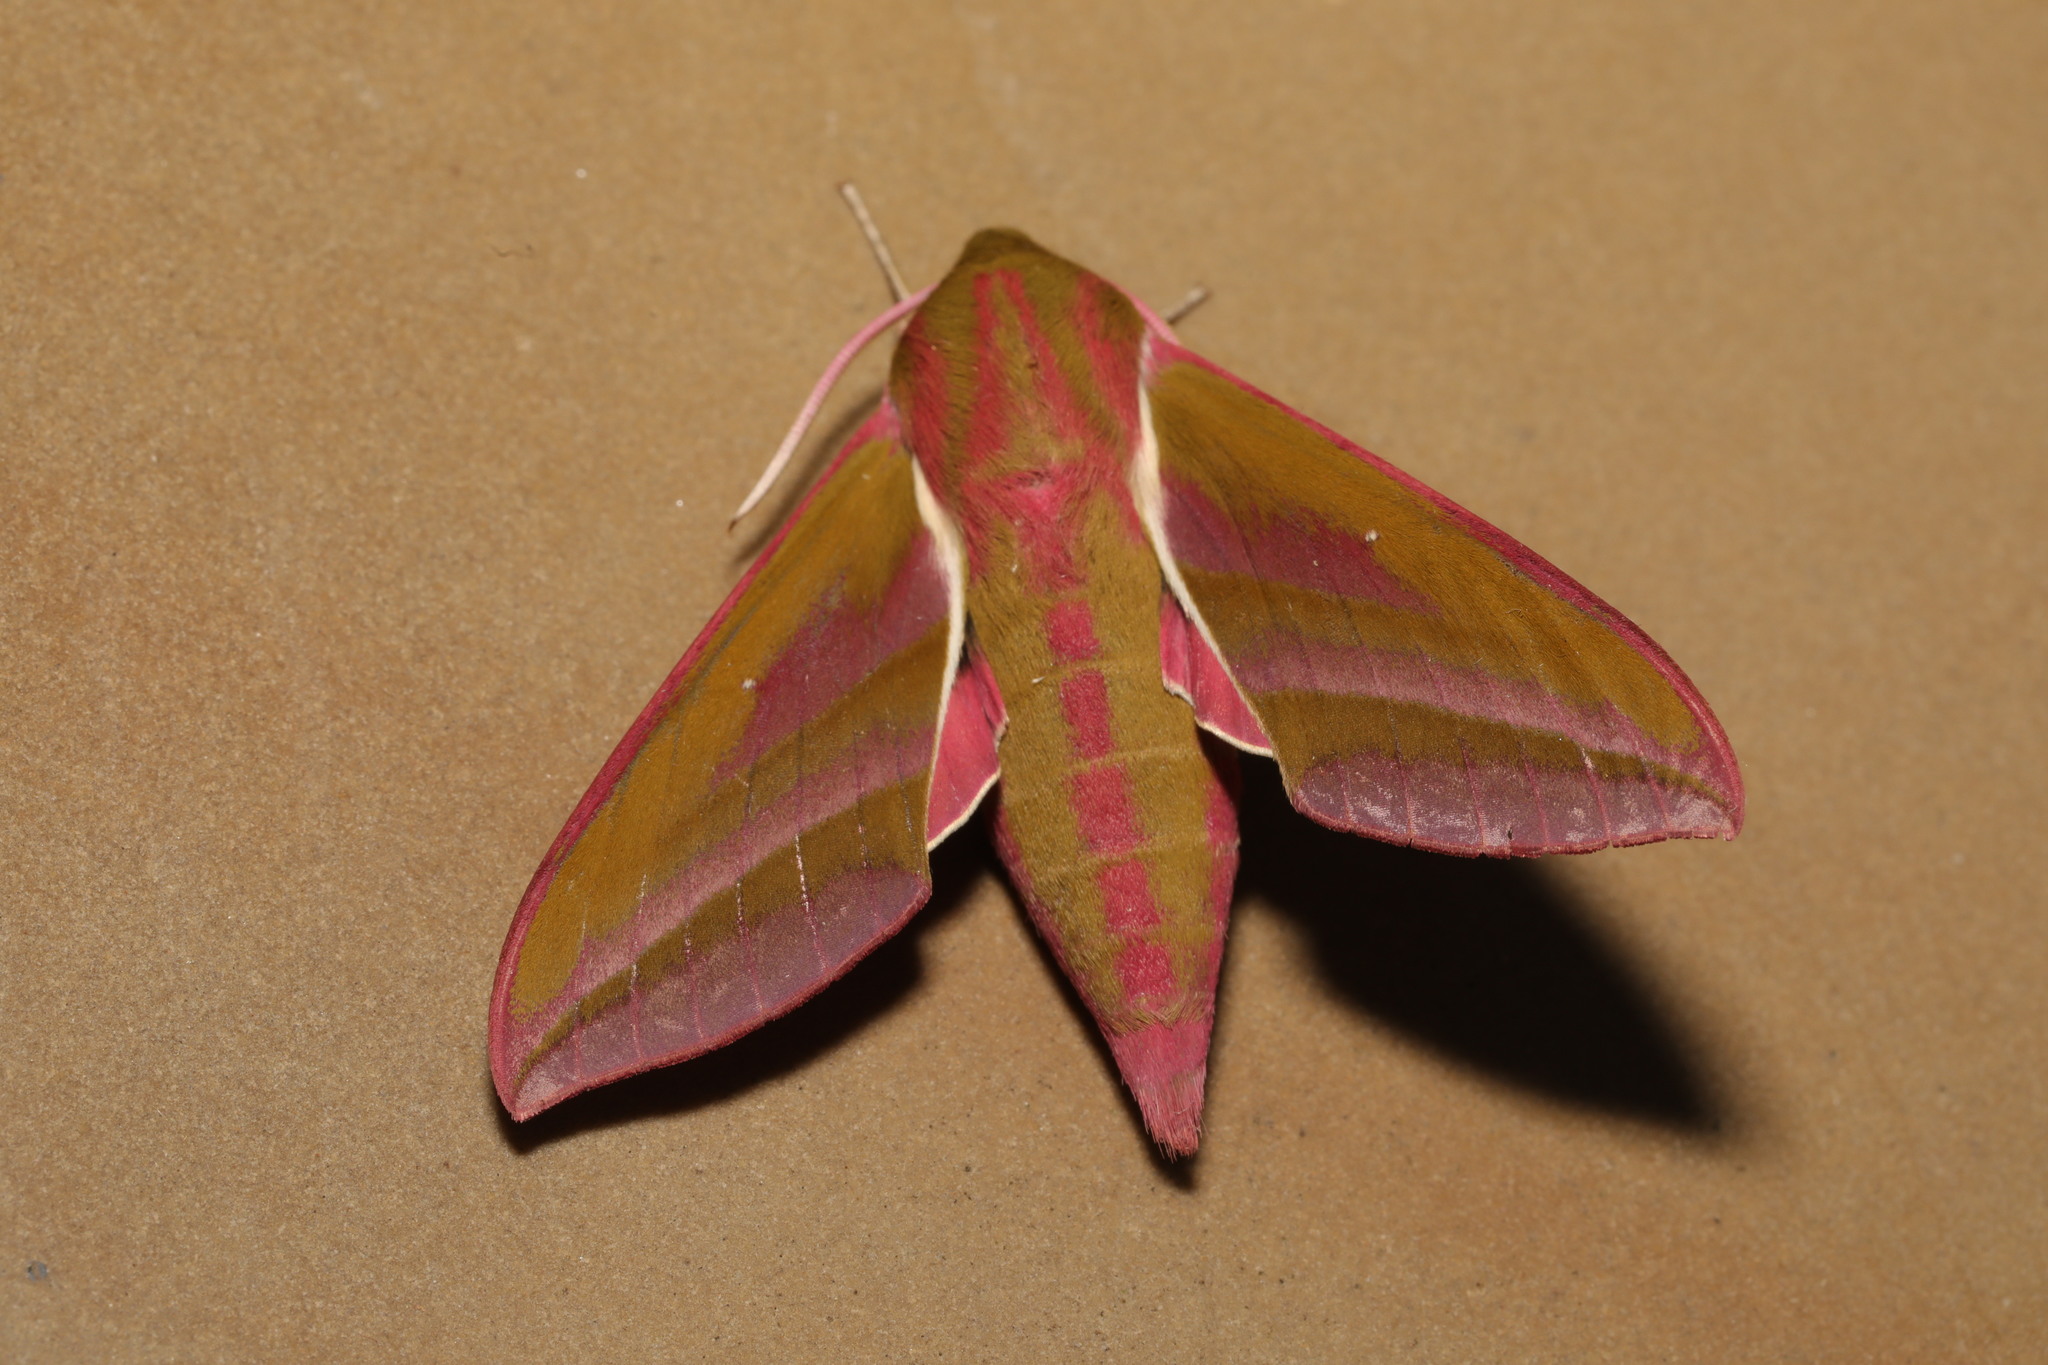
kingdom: Animalia
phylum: Arthropoda
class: Insecta
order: Lepidoptera
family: Sphingidae
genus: Deilephila
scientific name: Deilephila elpenor
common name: Elephant hawk-moth
